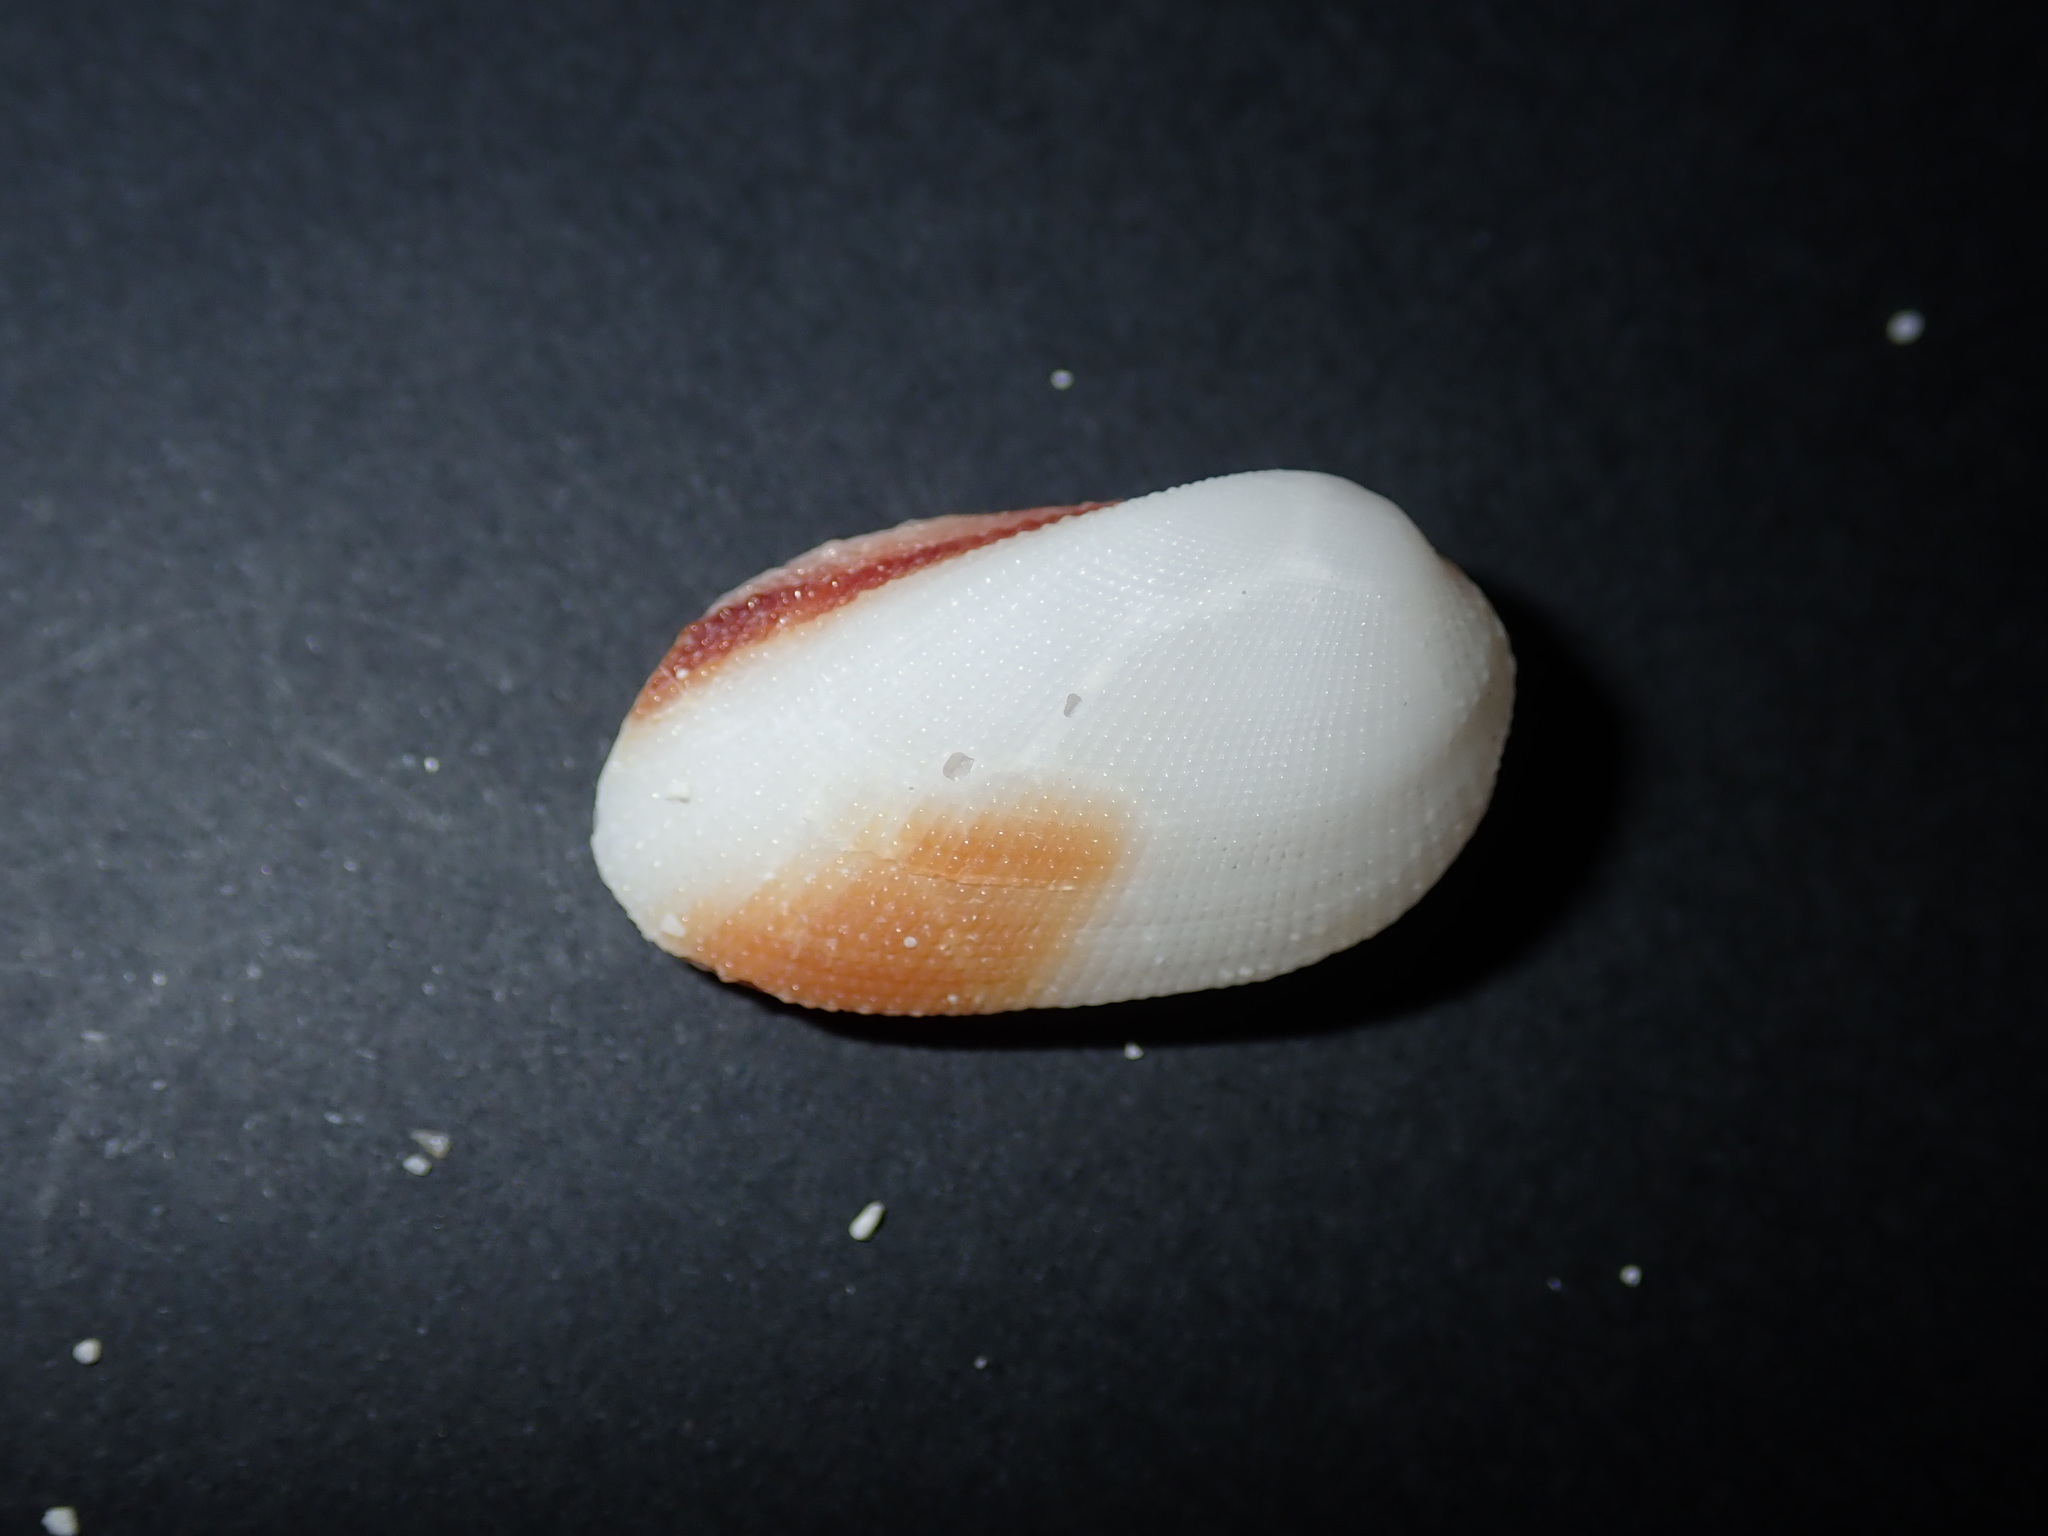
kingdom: Animalia
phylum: Mollusca
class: Bivalvia
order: Arcida
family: Arcidae
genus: Barbatia
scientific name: Barbatia amygdalumtostum
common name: Burnt-almond ark
